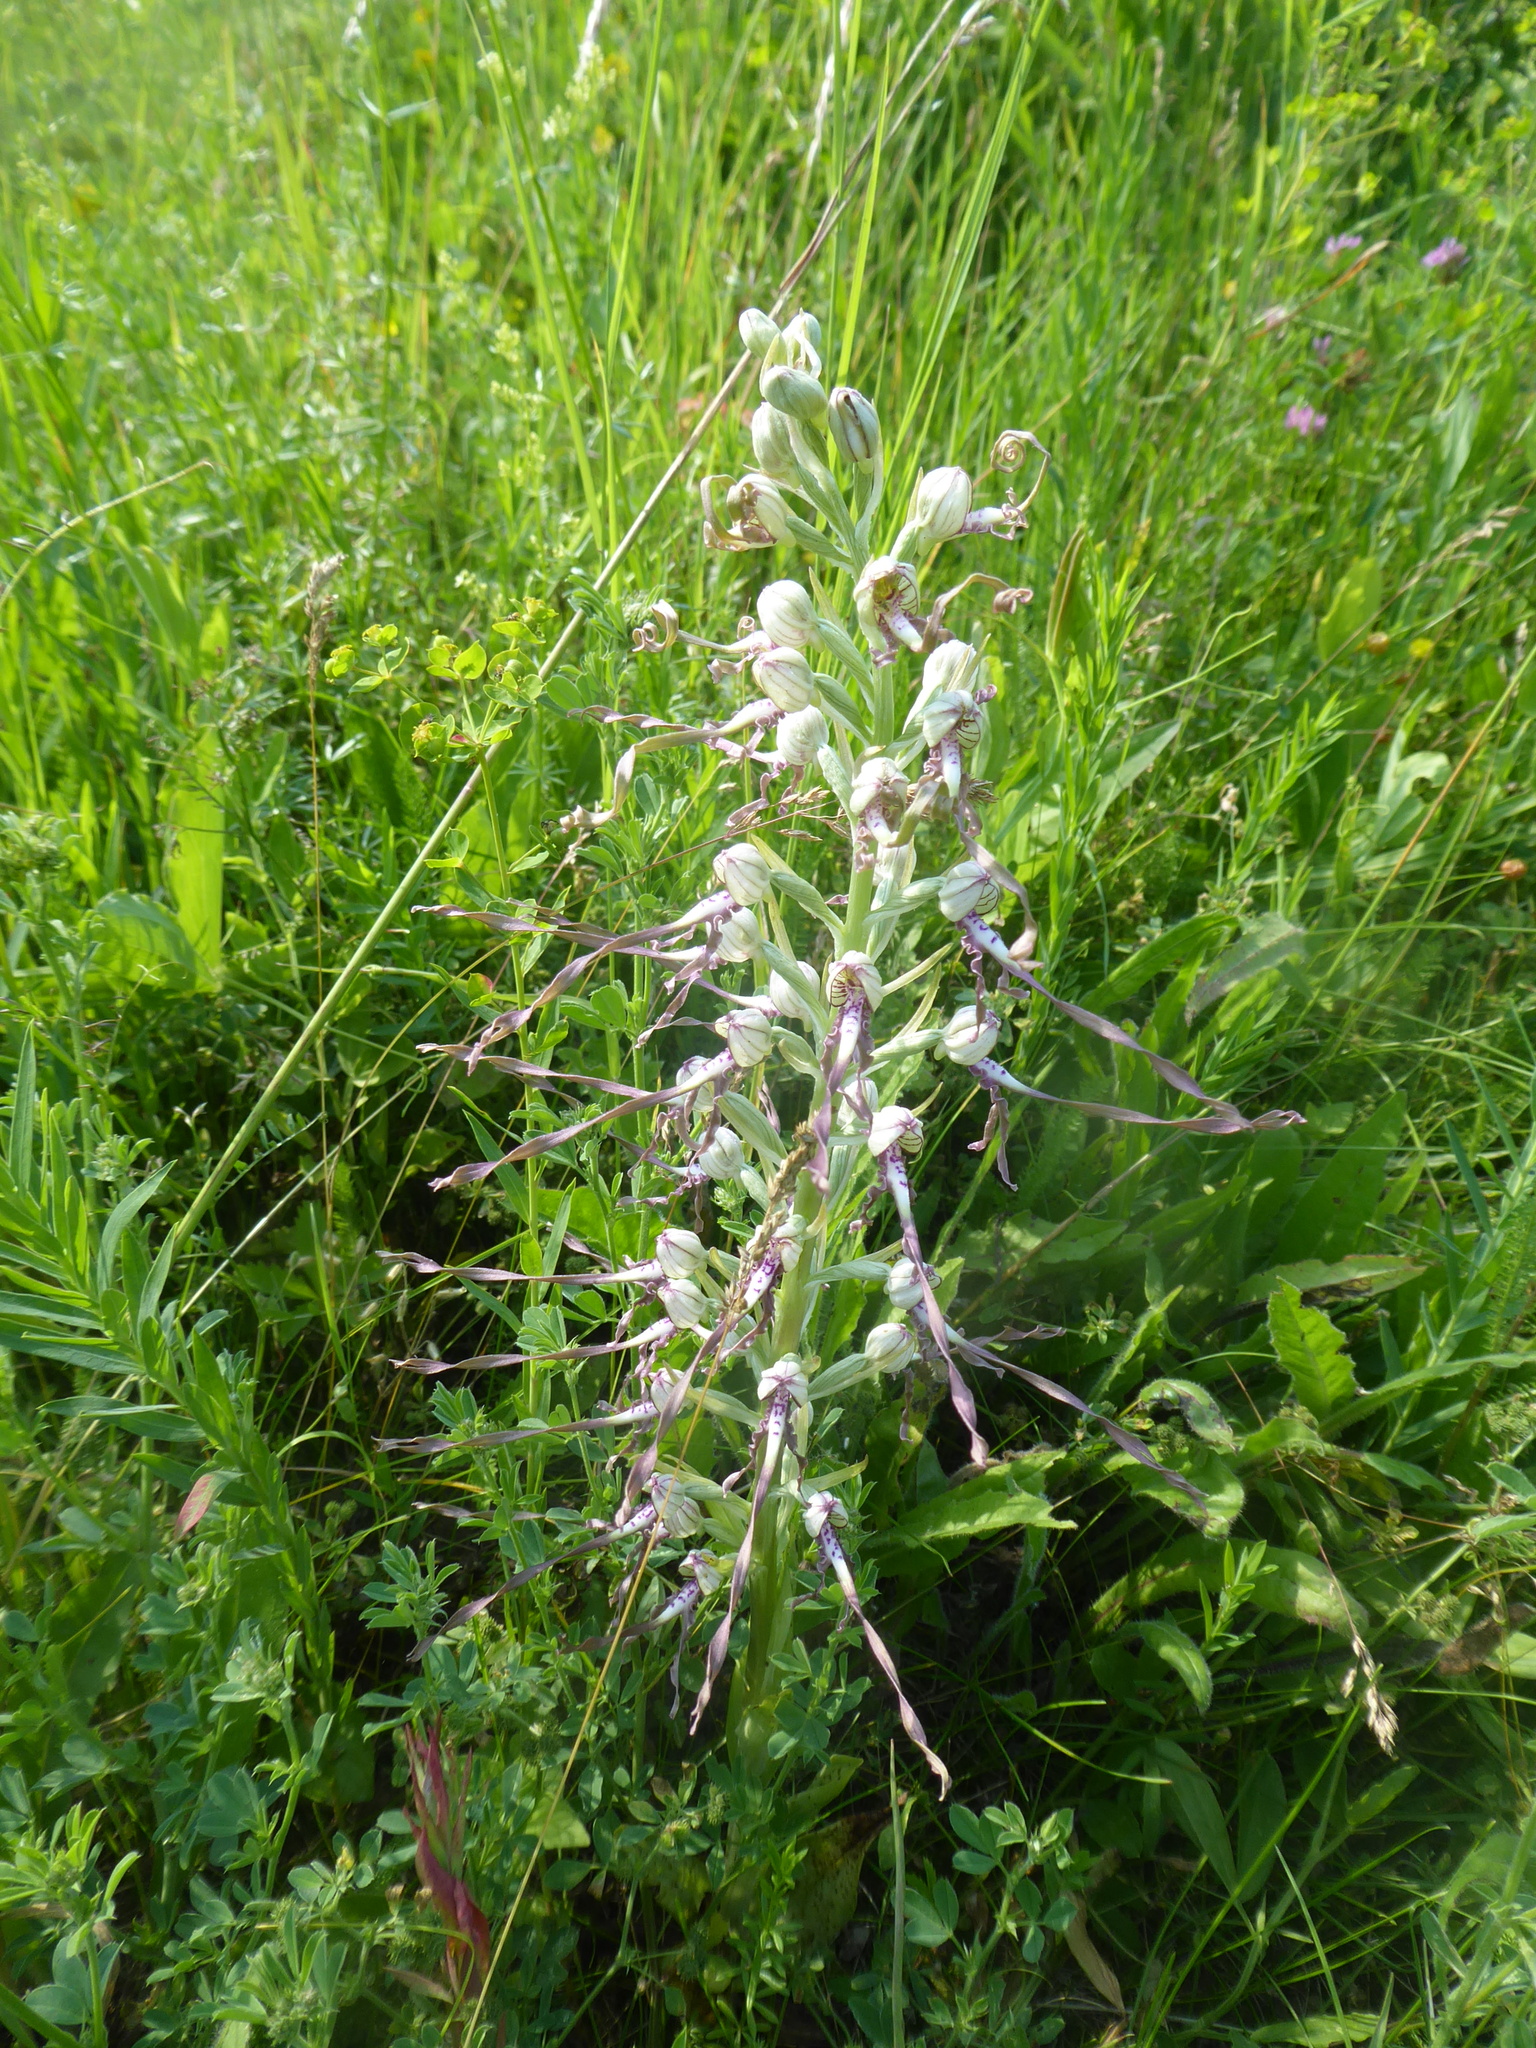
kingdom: Plantae
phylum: Tracheophyta
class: Liliopsida
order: Asparagales
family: Orchidaceae
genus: Himantoglossum
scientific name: Himantoglossum adriaticum
